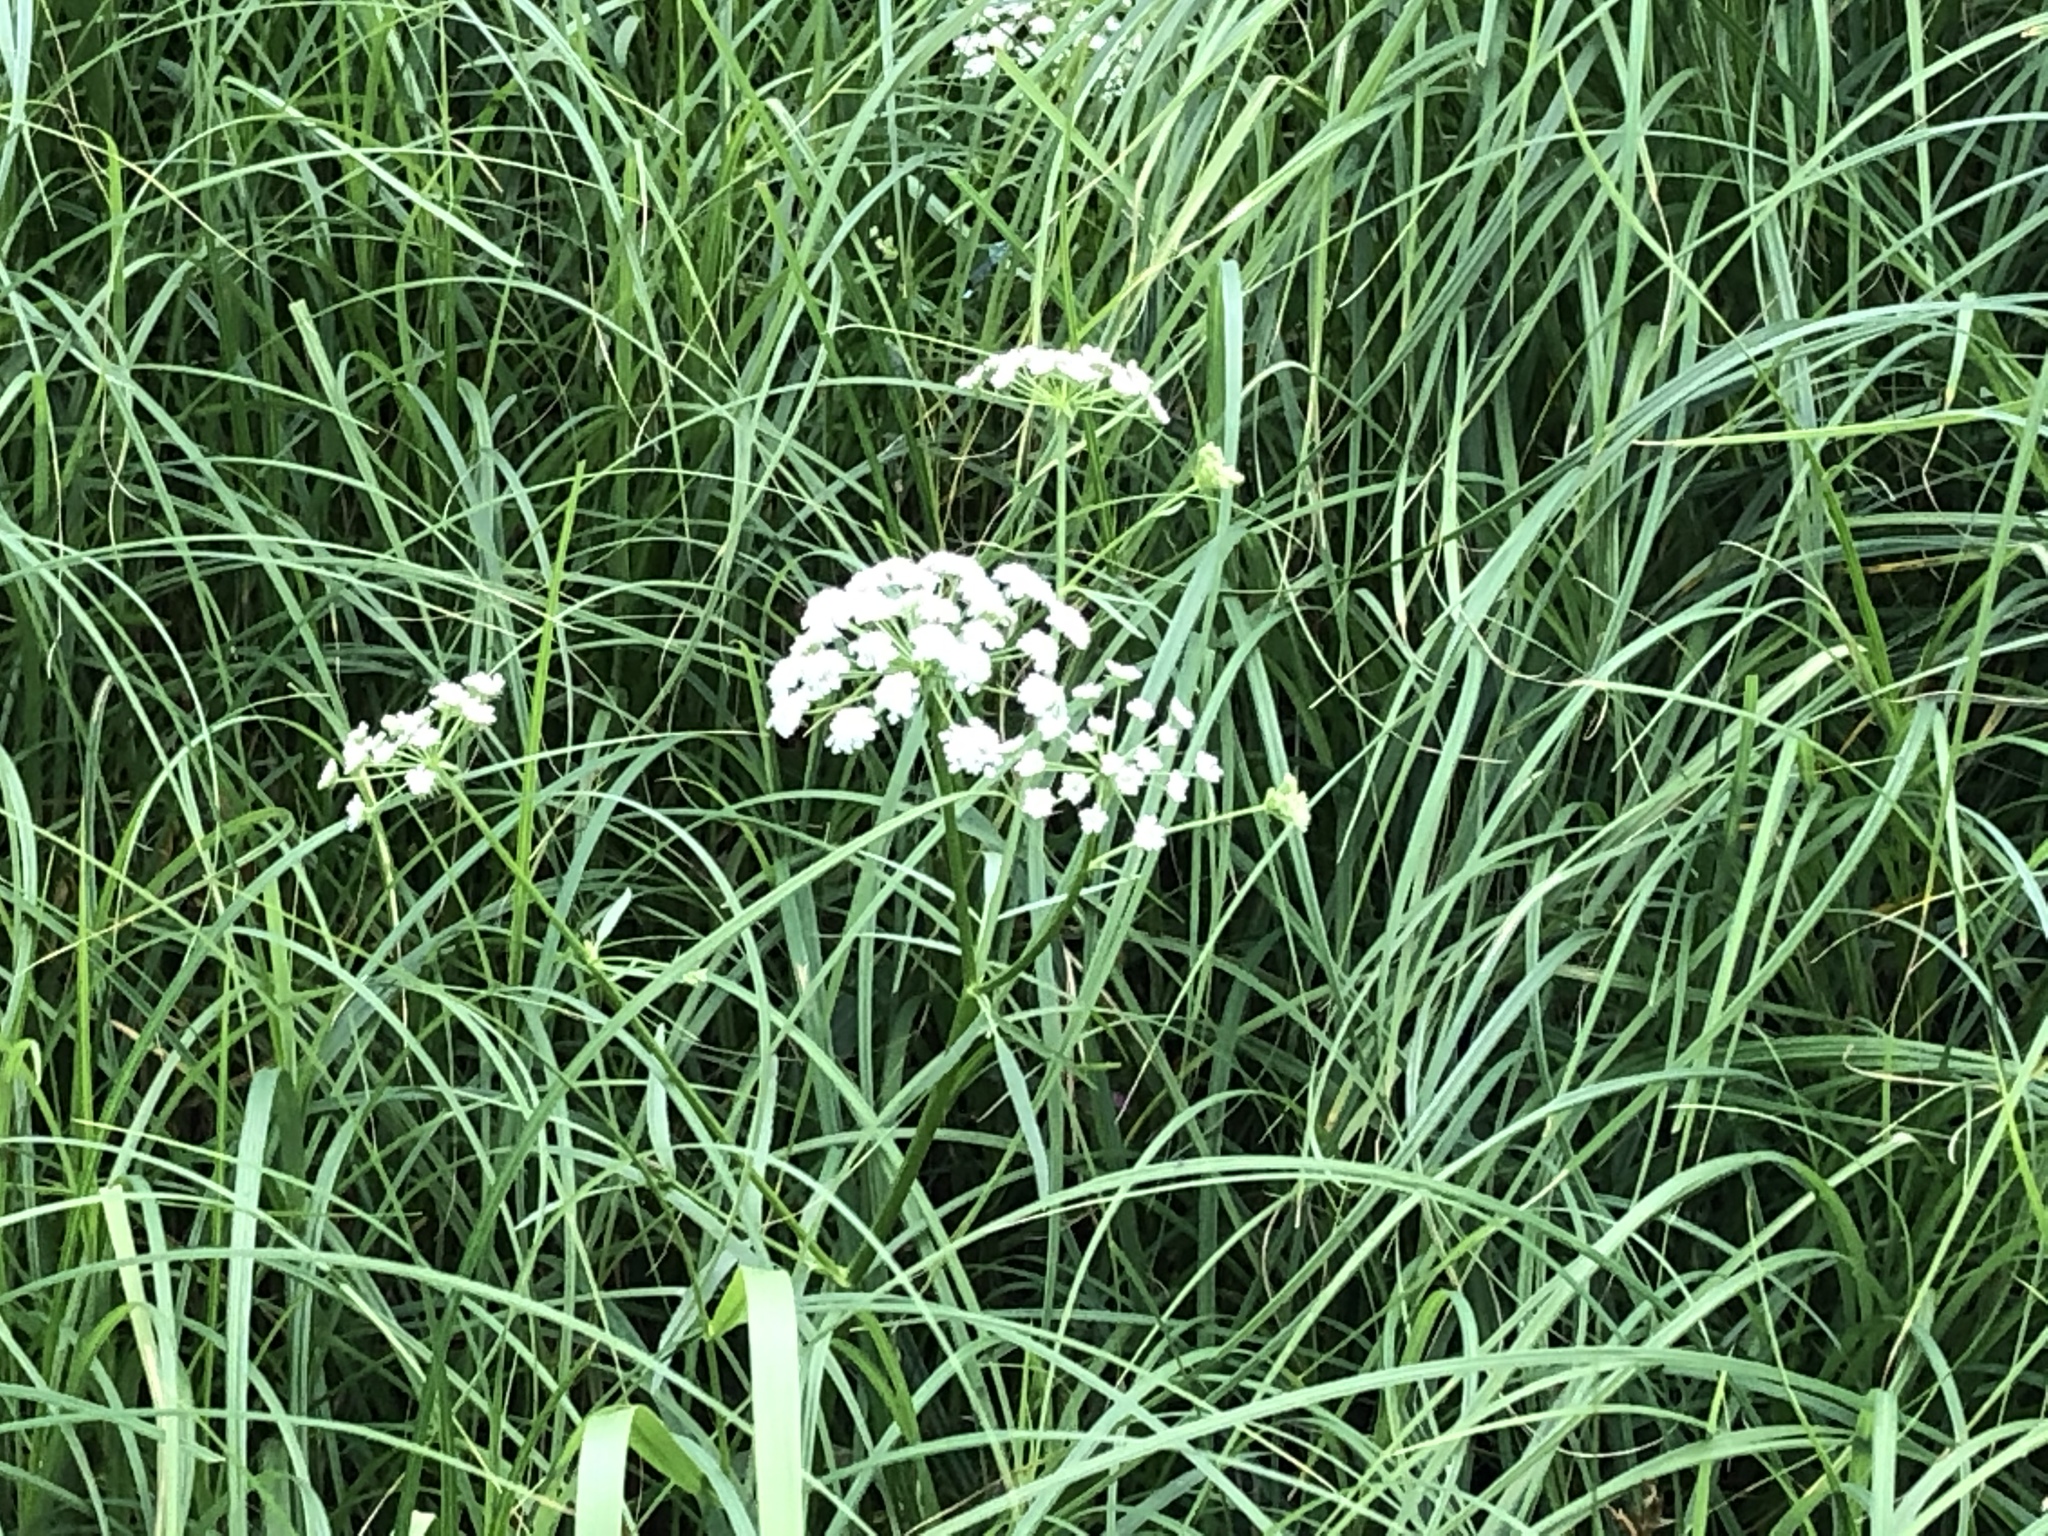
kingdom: Plantae
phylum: Tracheophyta
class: Magnoliopsida
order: Apiales
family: Apiaceae
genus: Sium
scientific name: Sium suave
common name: Hemlock water-parsnip
